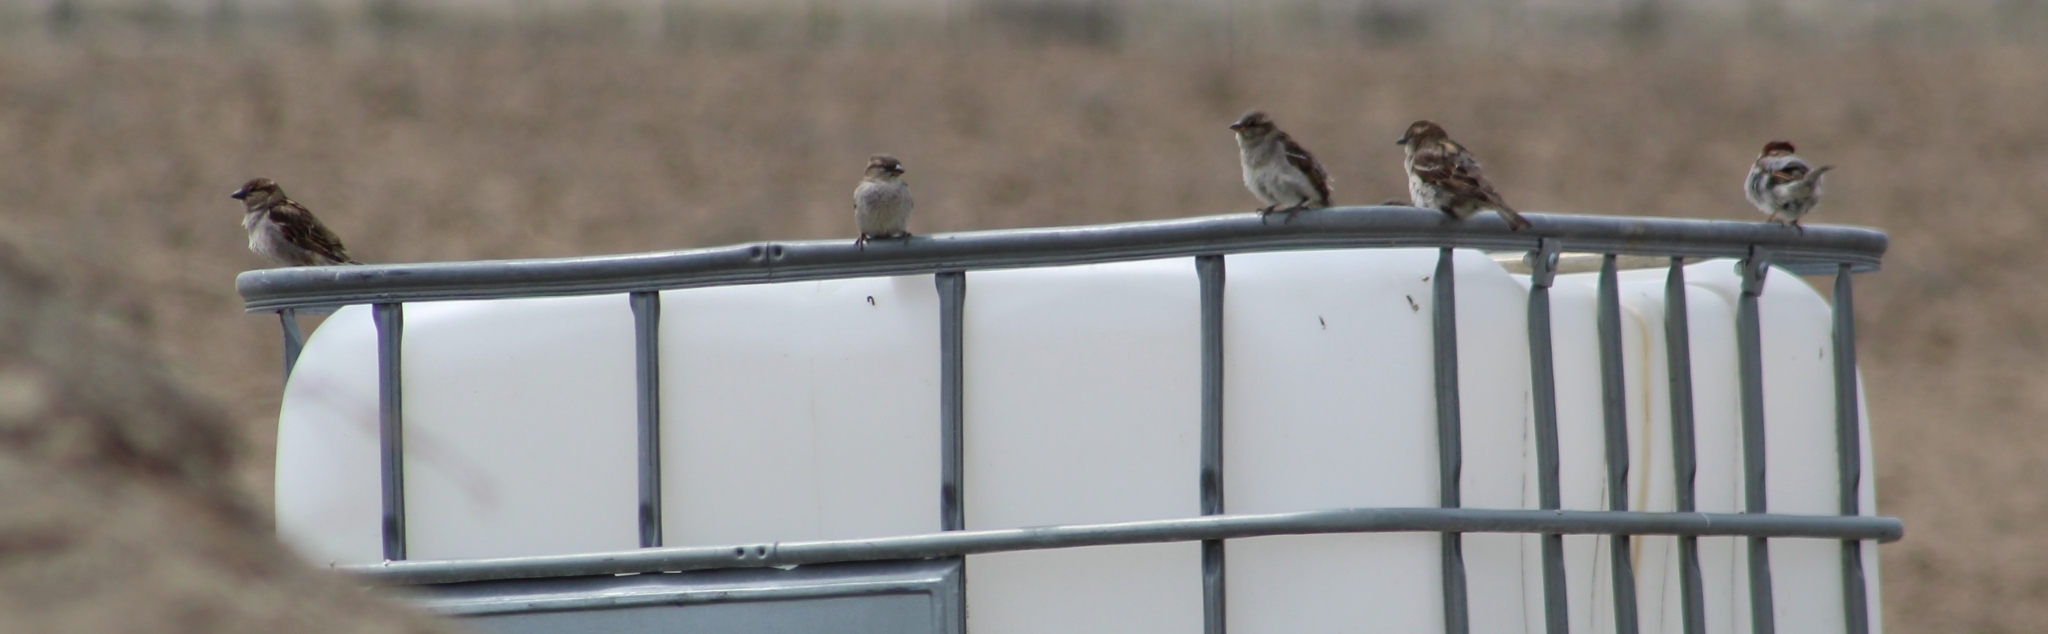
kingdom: Animalia
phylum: Chordata
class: Aves
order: Passeriformes
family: Passeridae
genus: Passer
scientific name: Passer domesticus
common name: House sparrow
